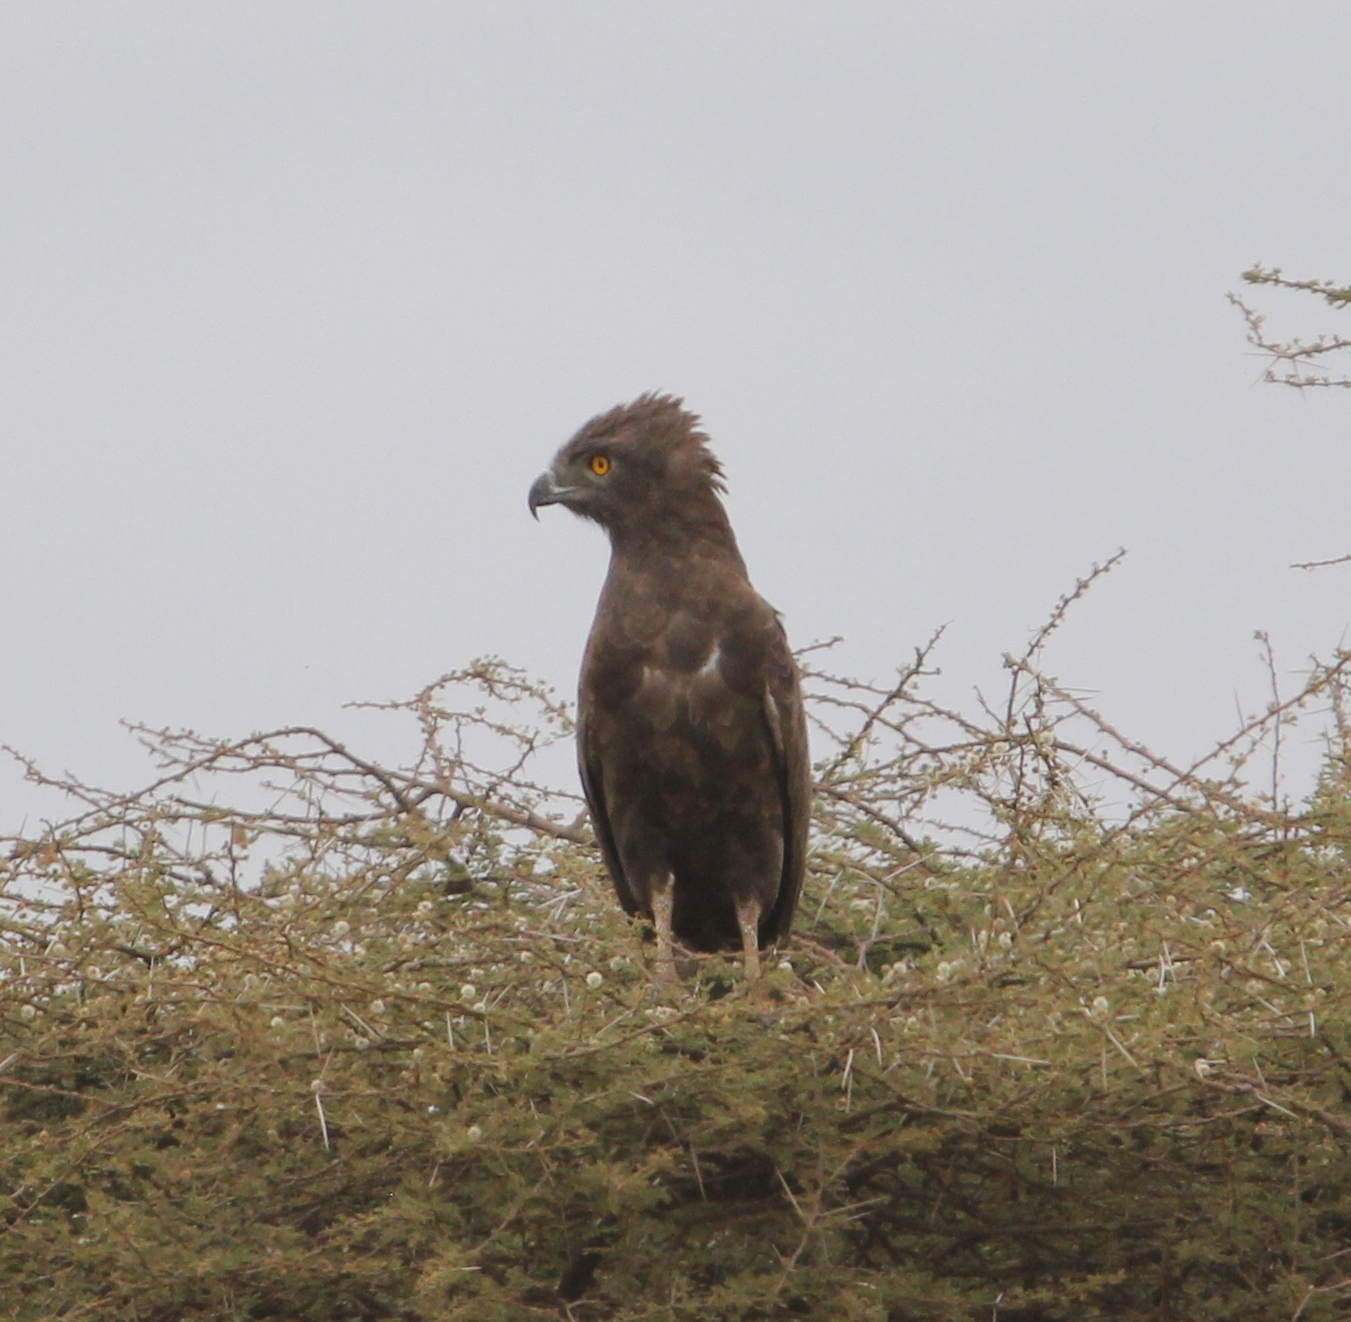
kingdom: Animalia
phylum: Chordata
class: Aves
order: Accipitriformes
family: Accipitridae
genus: Circaetus
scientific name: Circaetus cinereus
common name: Brown snake eagle
